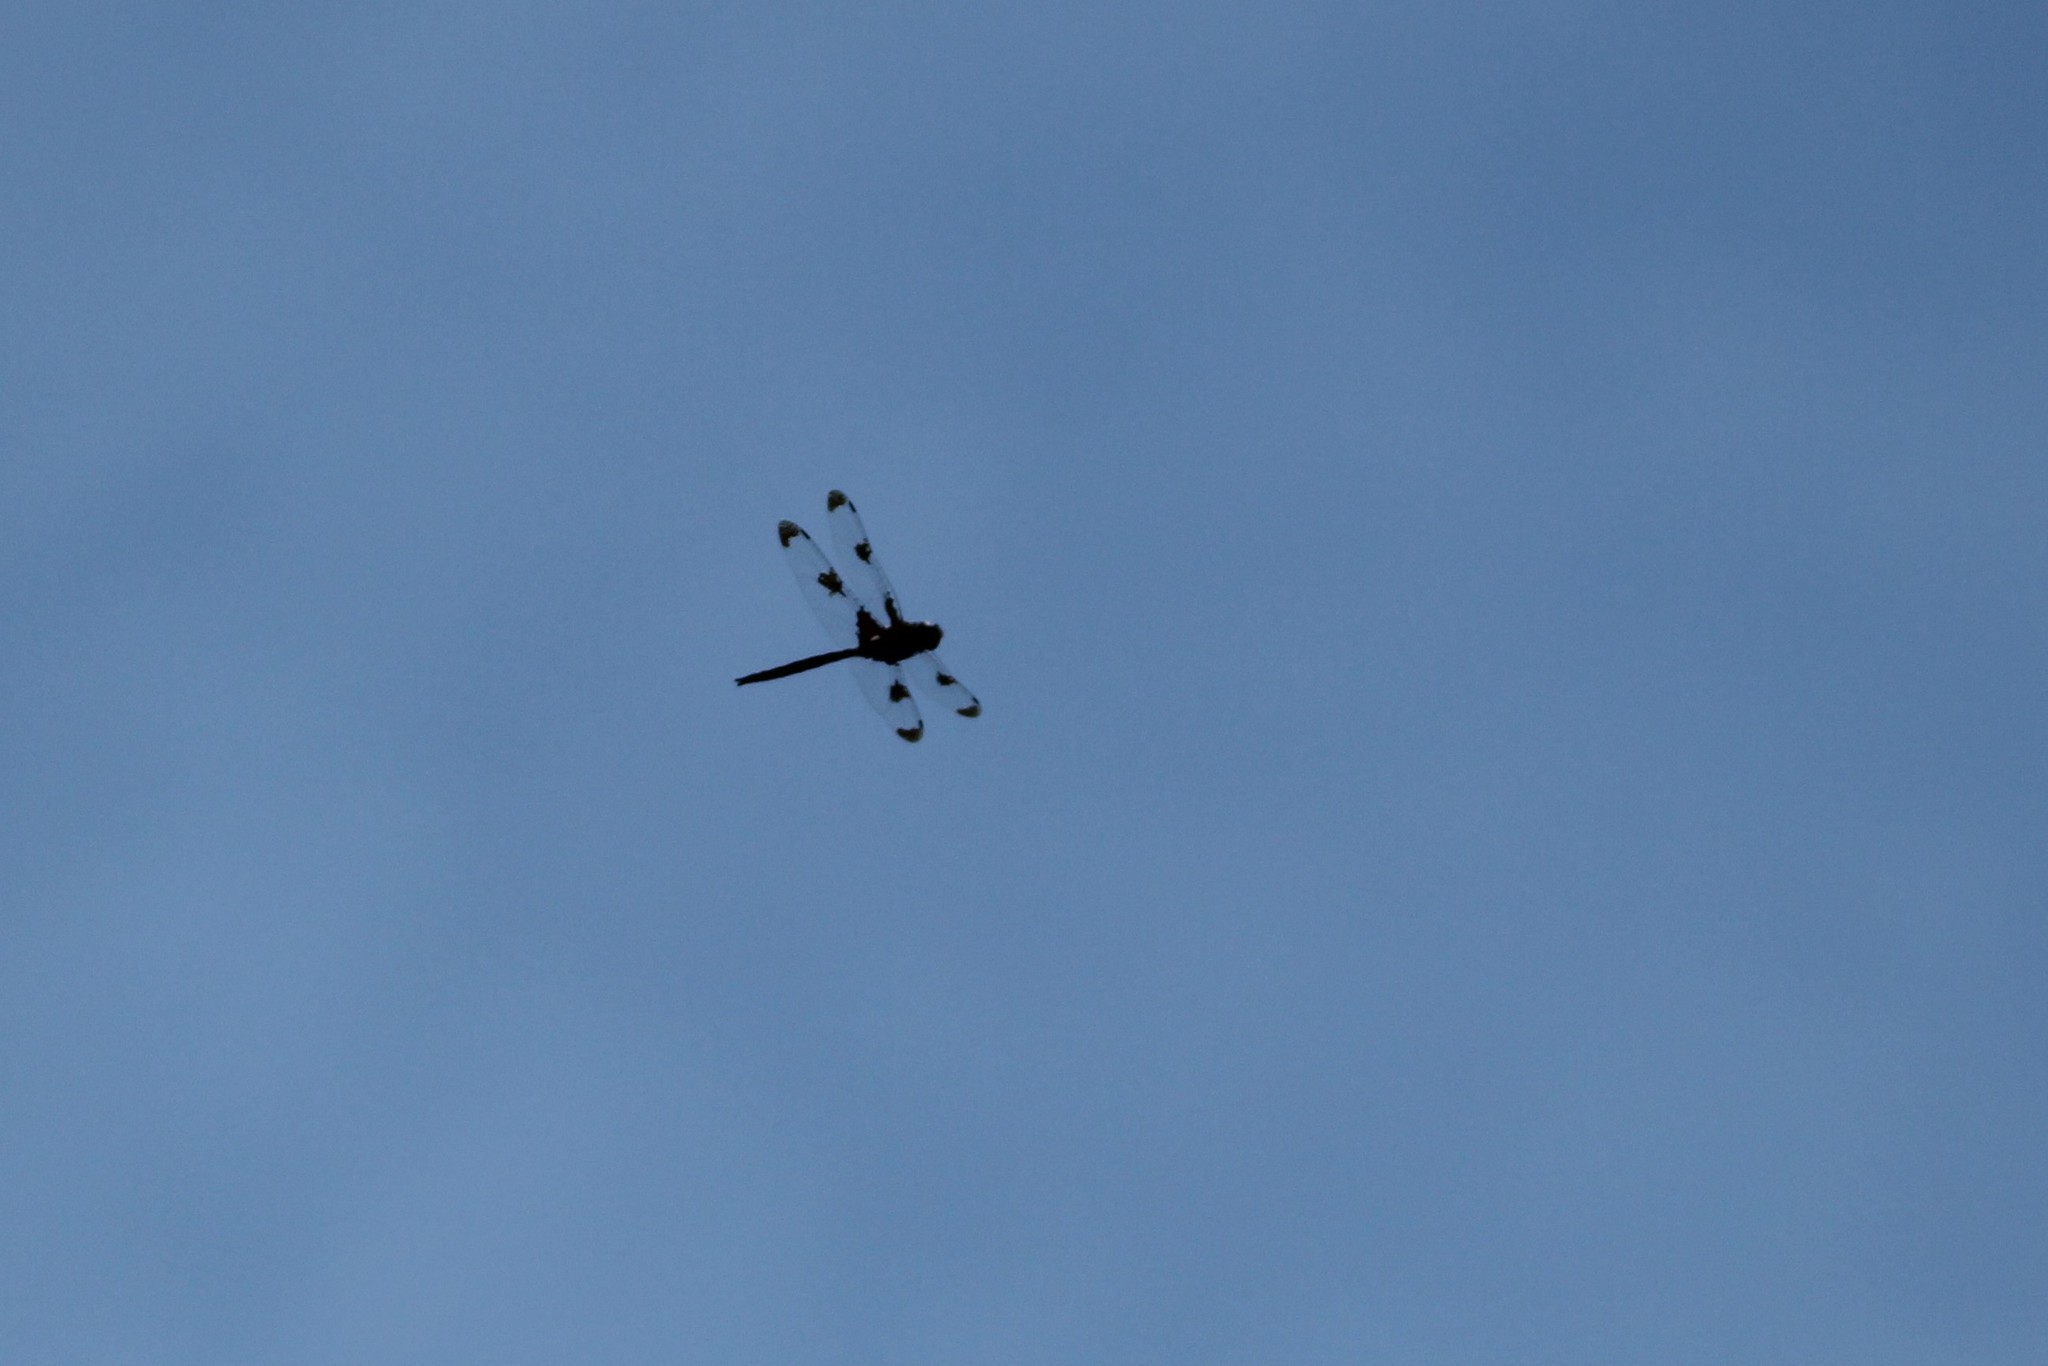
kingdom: Animalia
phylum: Arthropoda
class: Insecta
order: Odonata
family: Corduliidae
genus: Epitheca
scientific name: Epitheca princeps
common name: Prince baskettail
